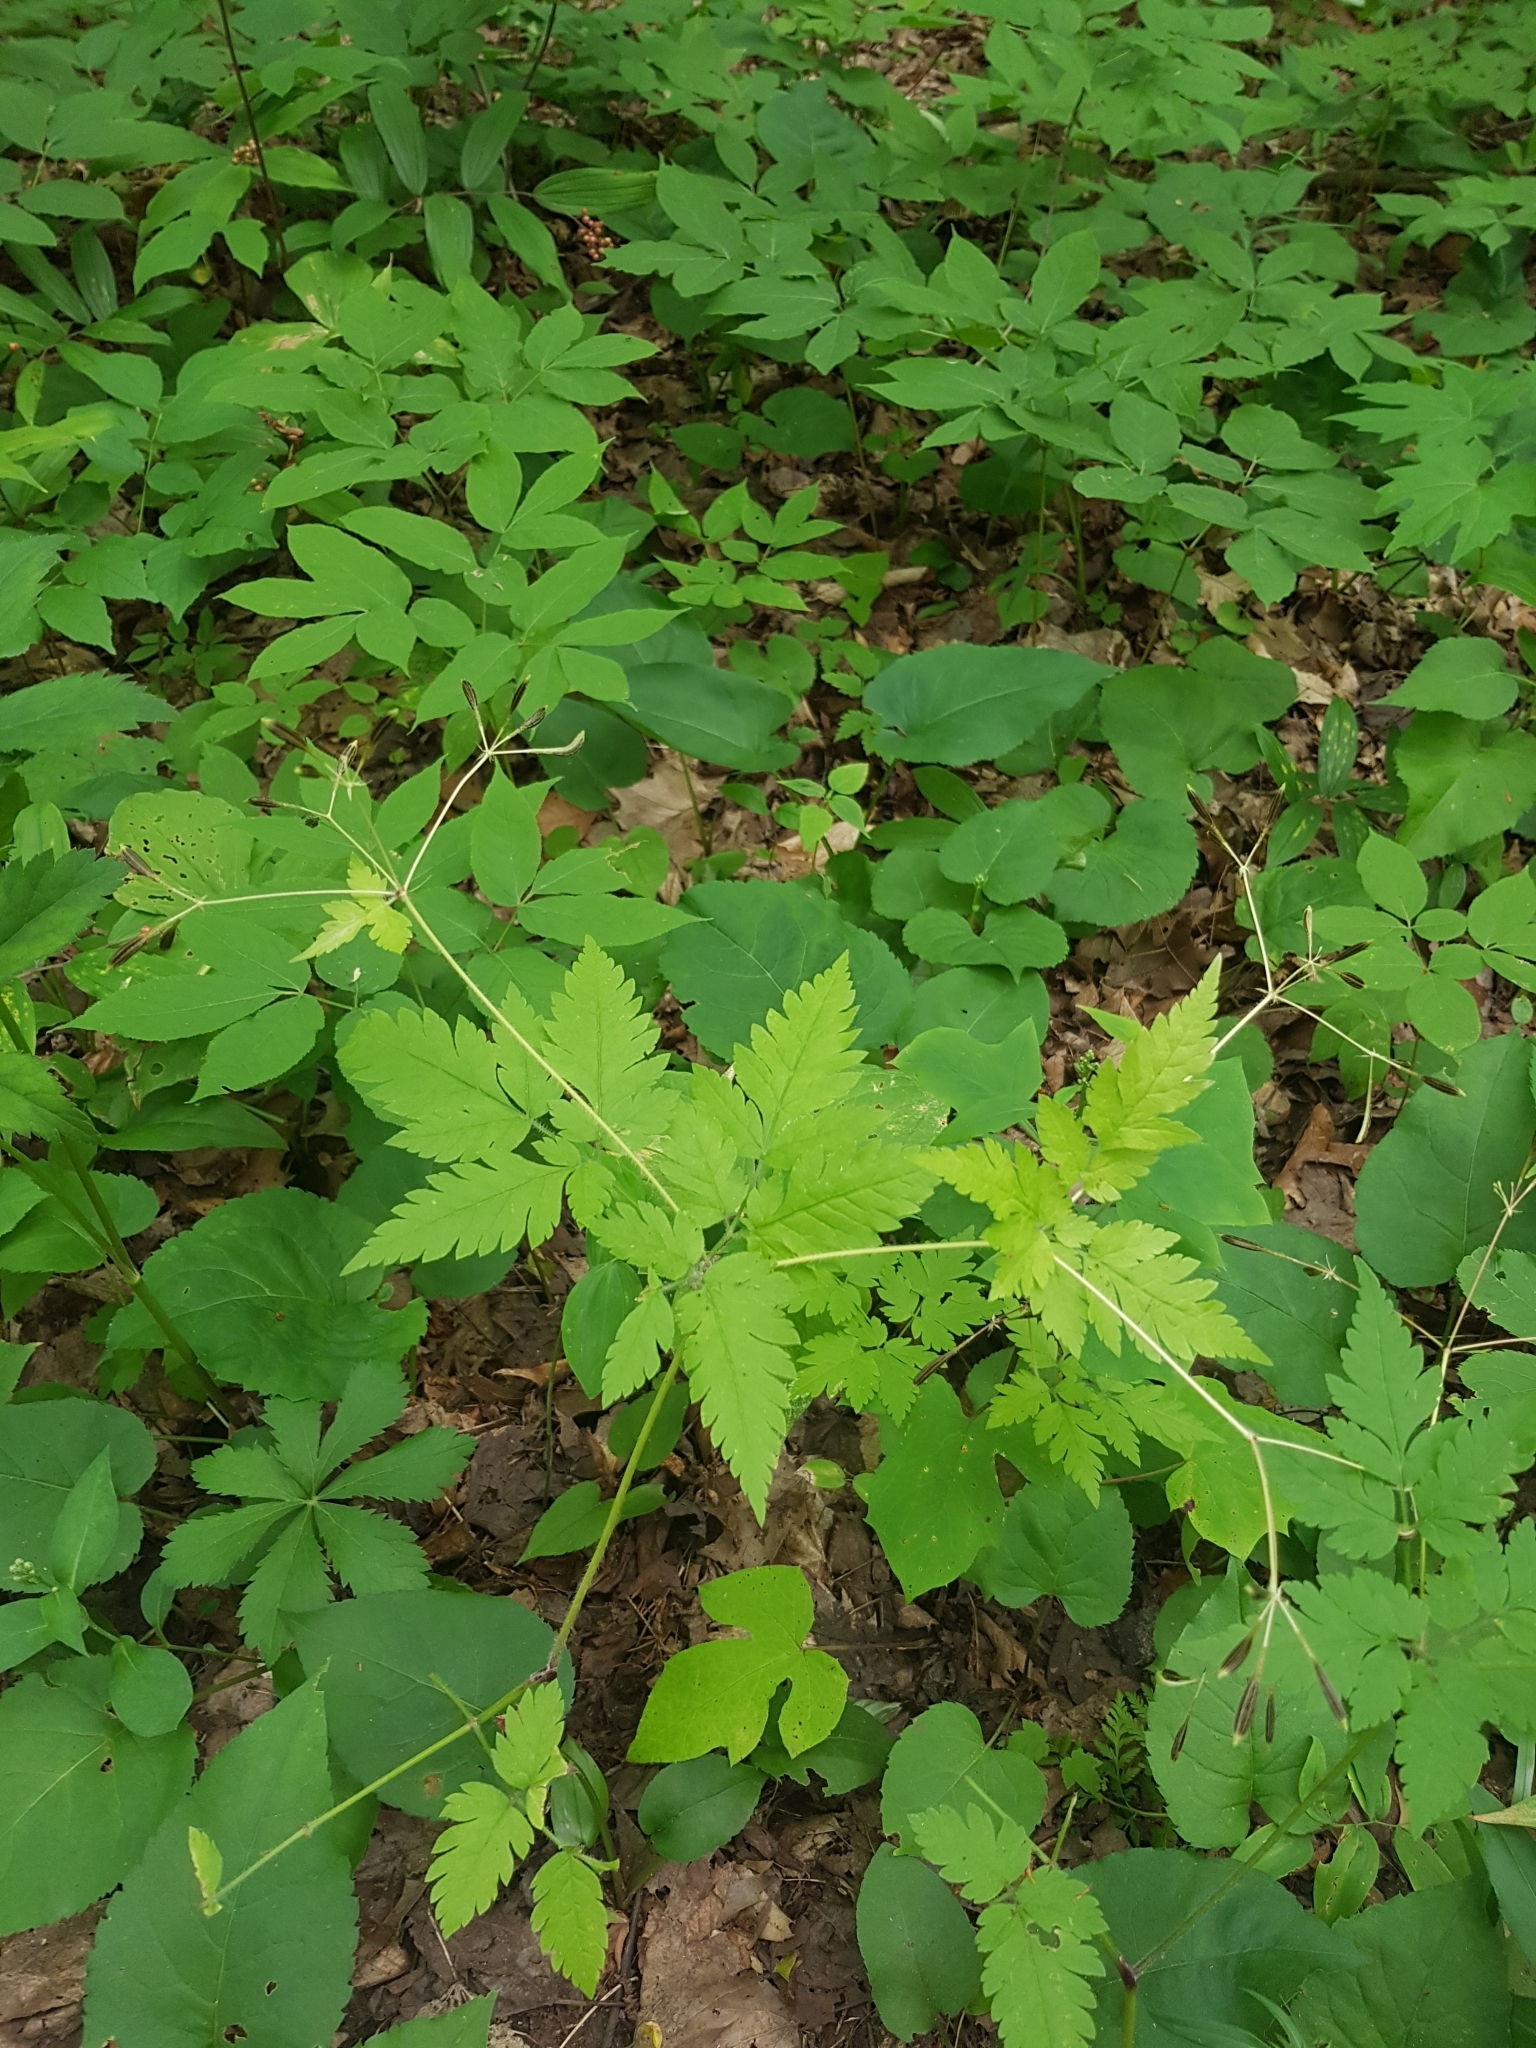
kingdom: Plantae
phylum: Tracheophyta
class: Magnoliopsida
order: Apiales
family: Apiaceae
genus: Osmorhiza
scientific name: Osmorhiza claytonii
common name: Hairy sweet cicely
